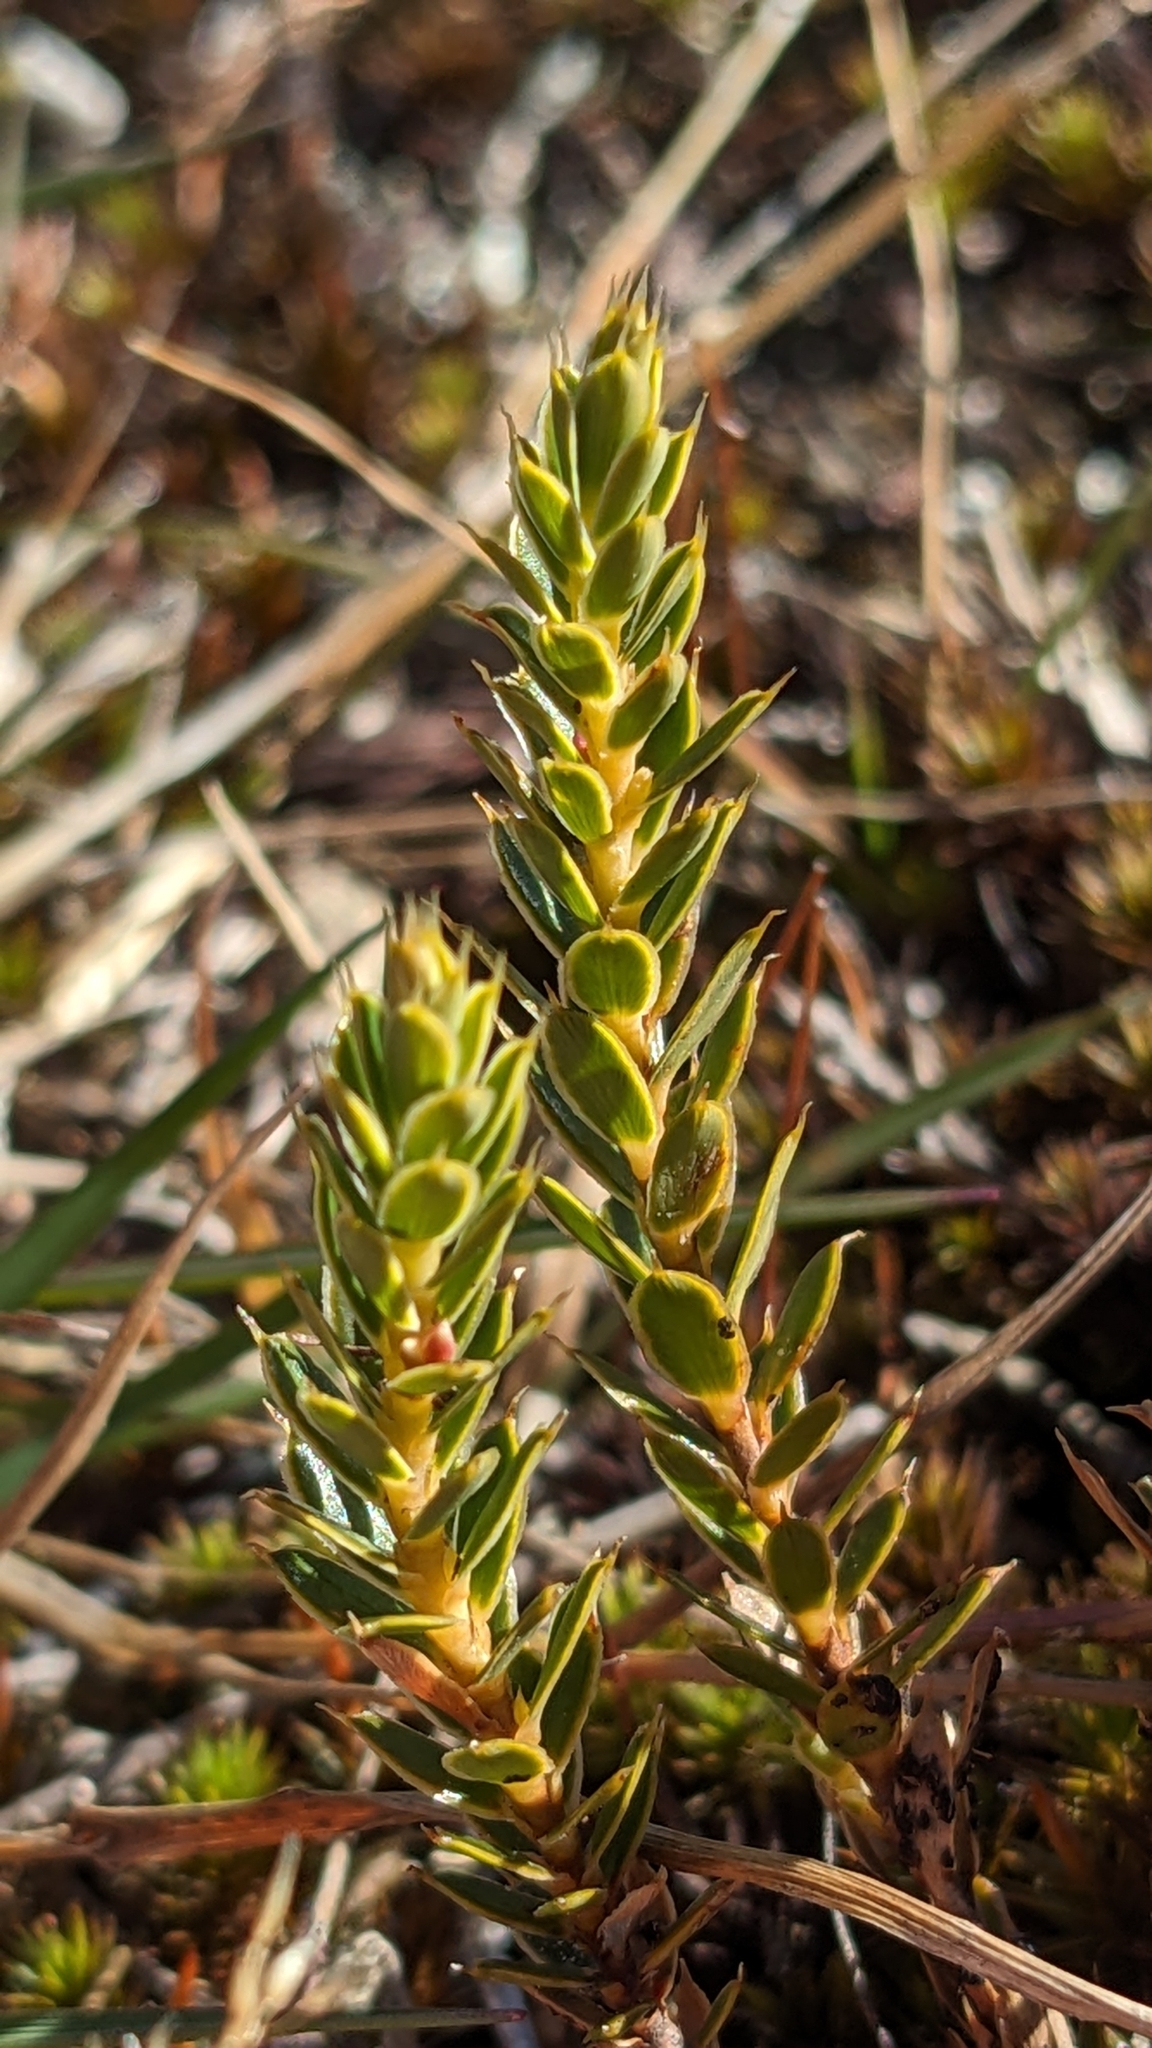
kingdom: Plantae
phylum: Tracheophyta
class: Magnoliopsida
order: Ericales
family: Ericaceae
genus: Styphelia
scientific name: Styphelia nesophila
